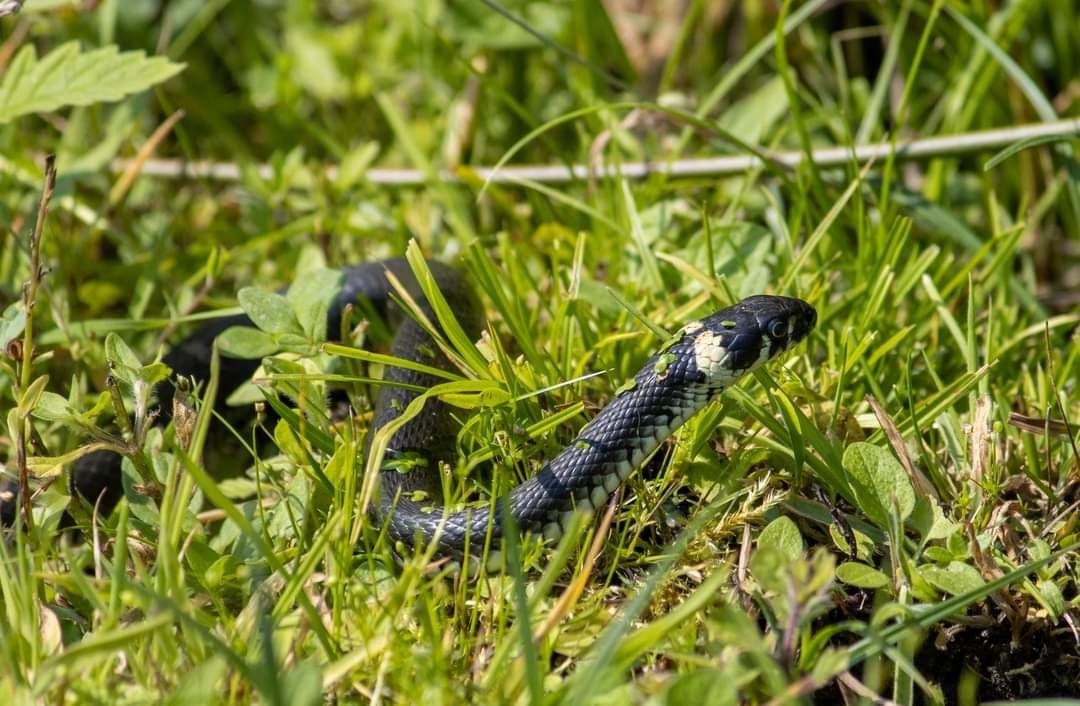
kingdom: Animalia
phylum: Chordata
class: Squamata
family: Colubridae
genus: Natrix
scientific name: Natrix natrix
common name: Grass snake
